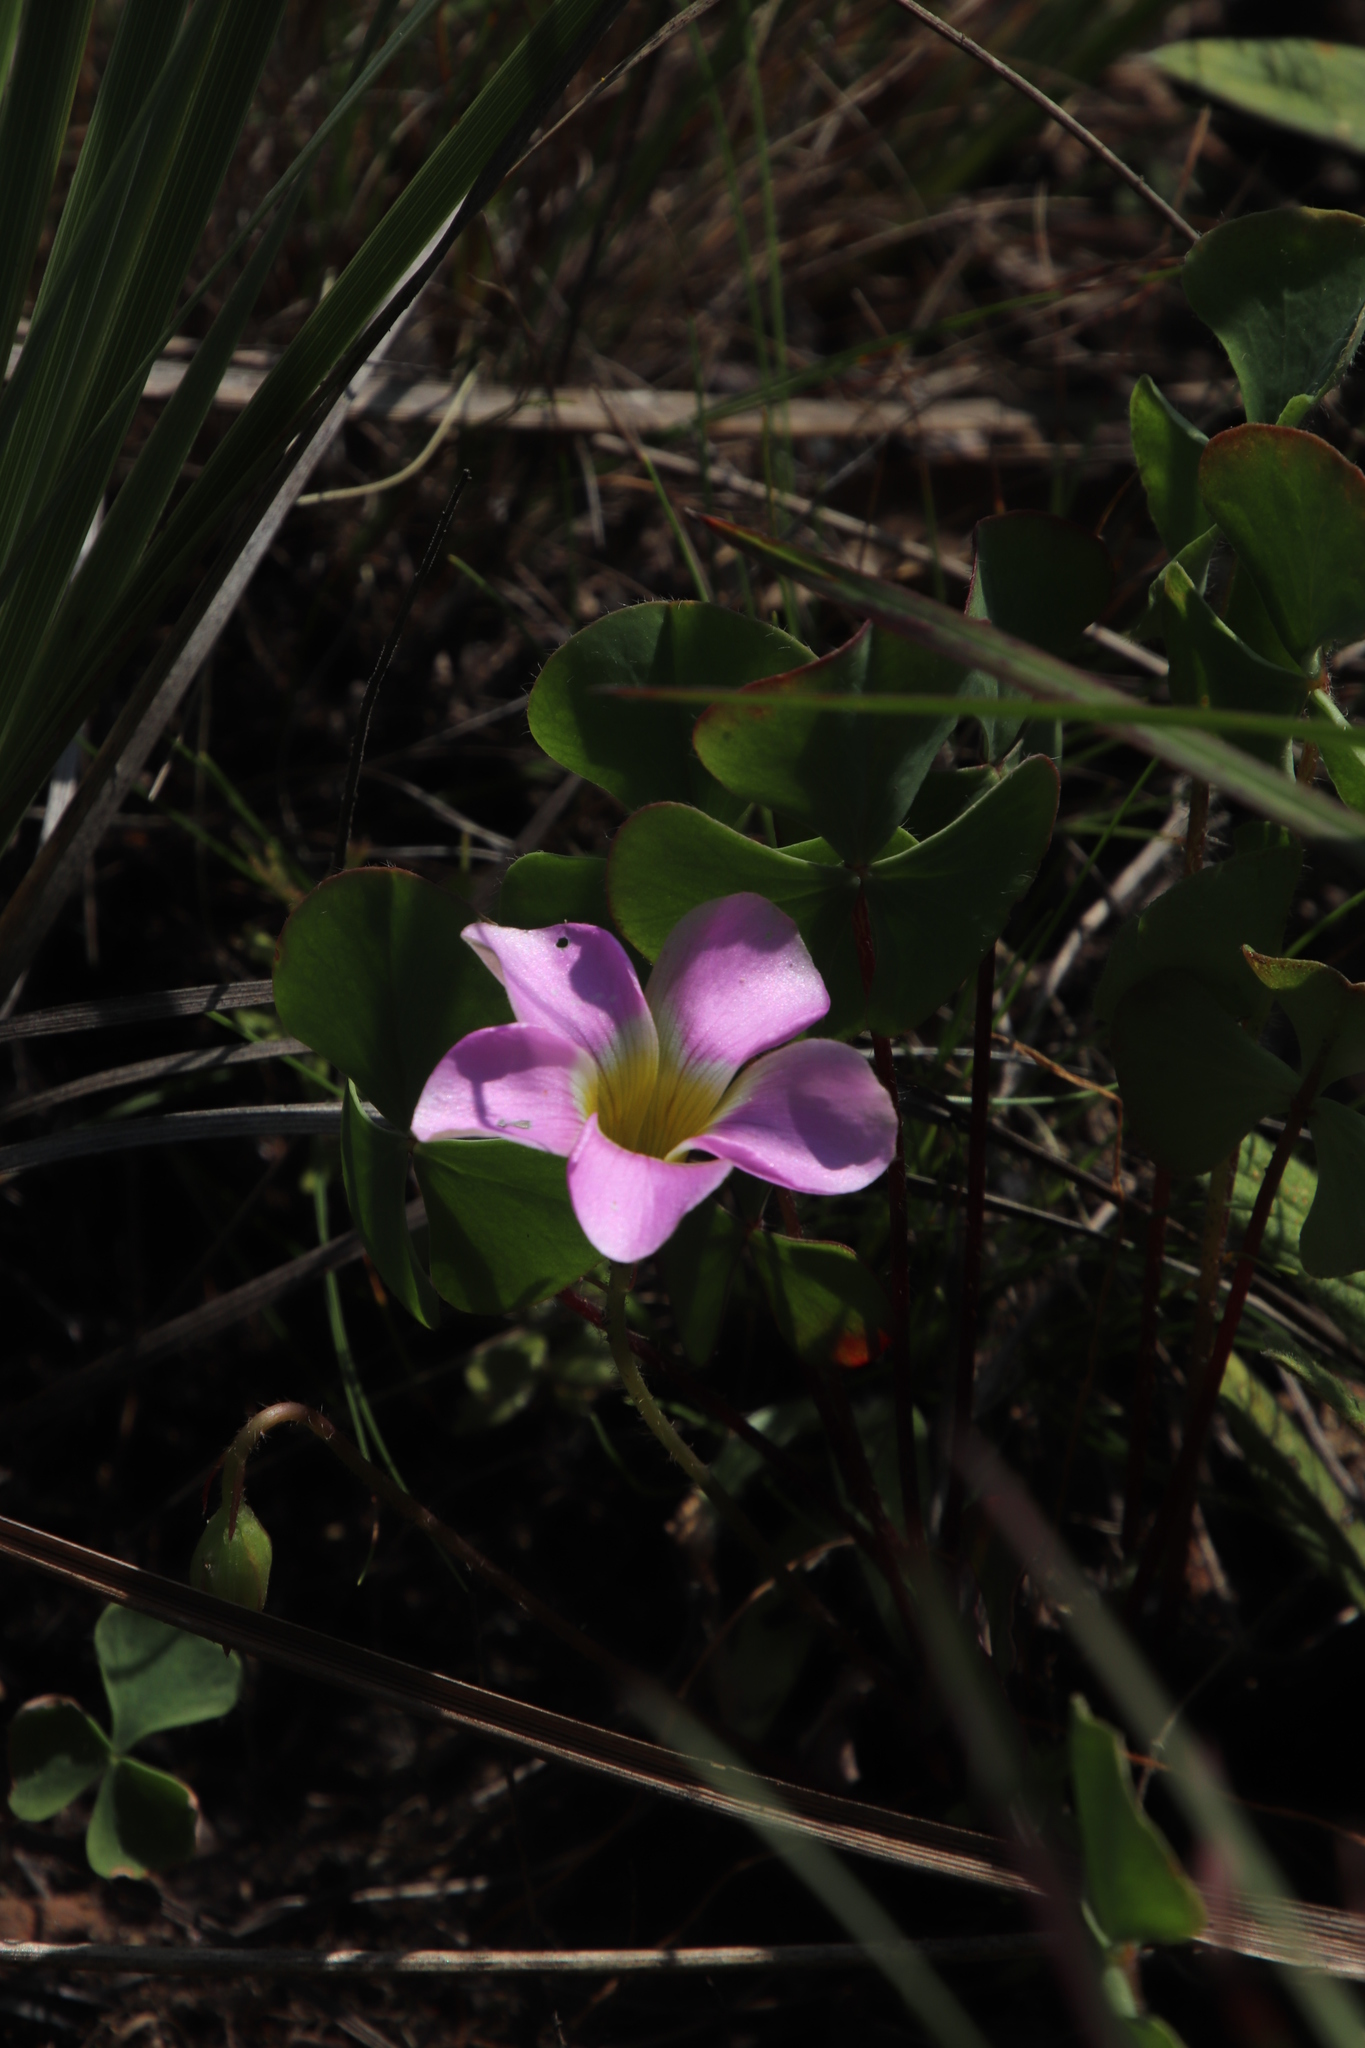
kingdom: Plantae
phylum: Tracheophyta
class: Magnoliopsida
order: Oxalidales
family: Oxalidaceae
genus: Oxalis
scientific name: Oxalis obliquifolia
